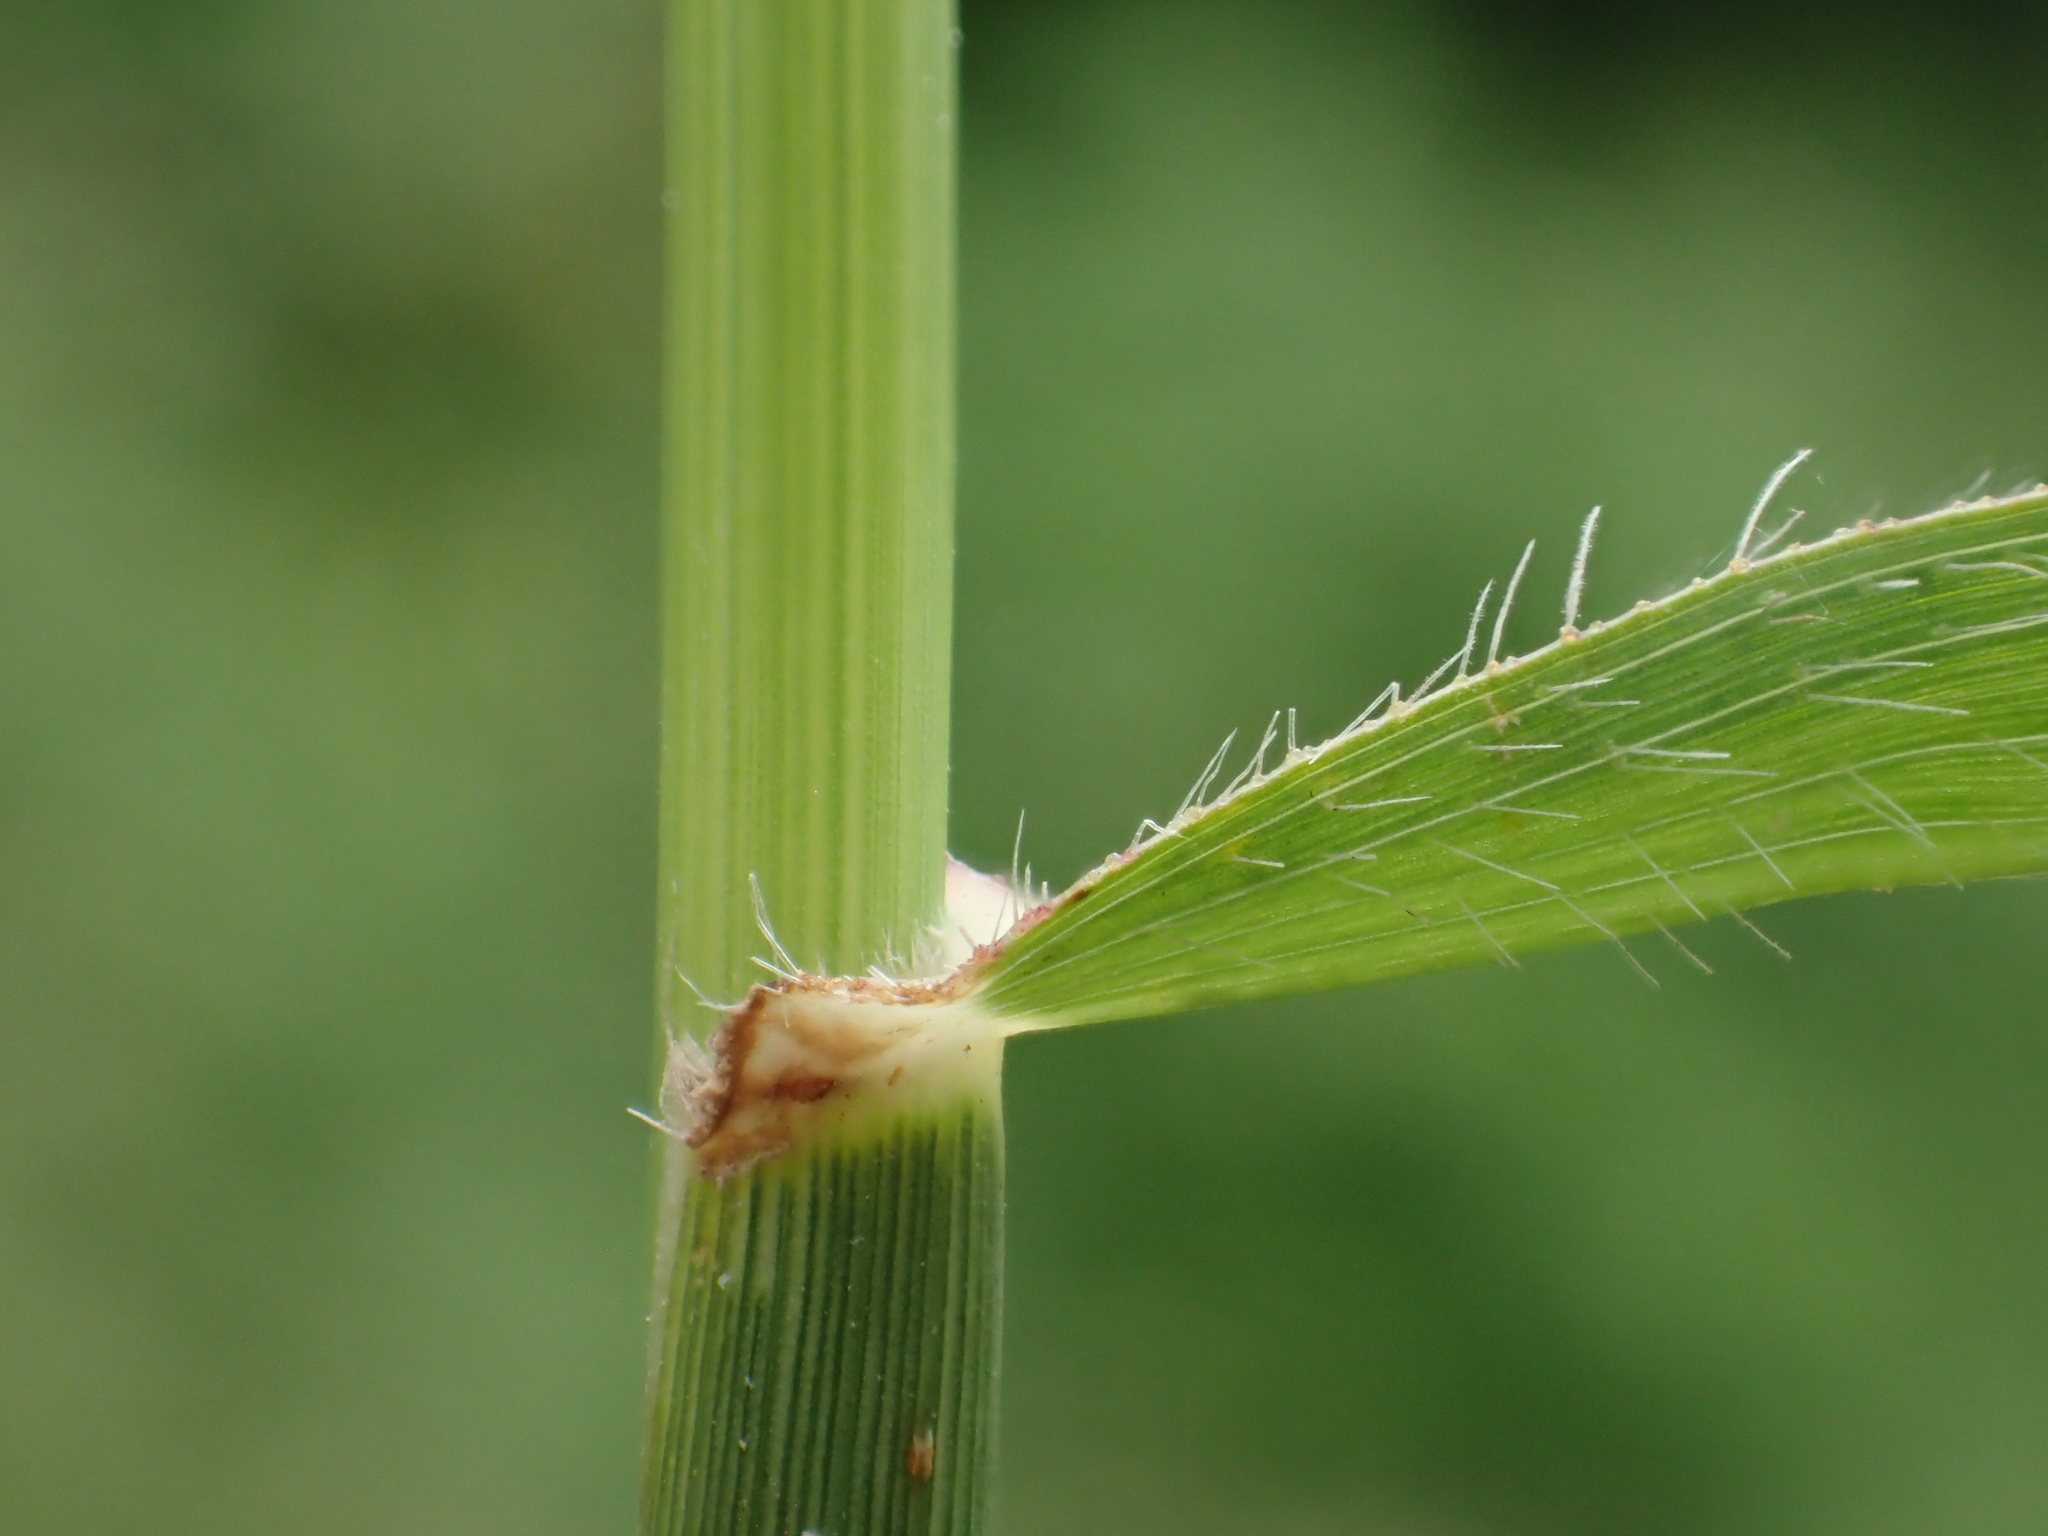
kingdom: Plantae
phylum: Tracheophyta
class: Liliopsida
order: Poales
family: Poaceae
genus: Dactyloctenium
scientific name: Dactyloctenium aegyptium
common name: Egyptian grass
